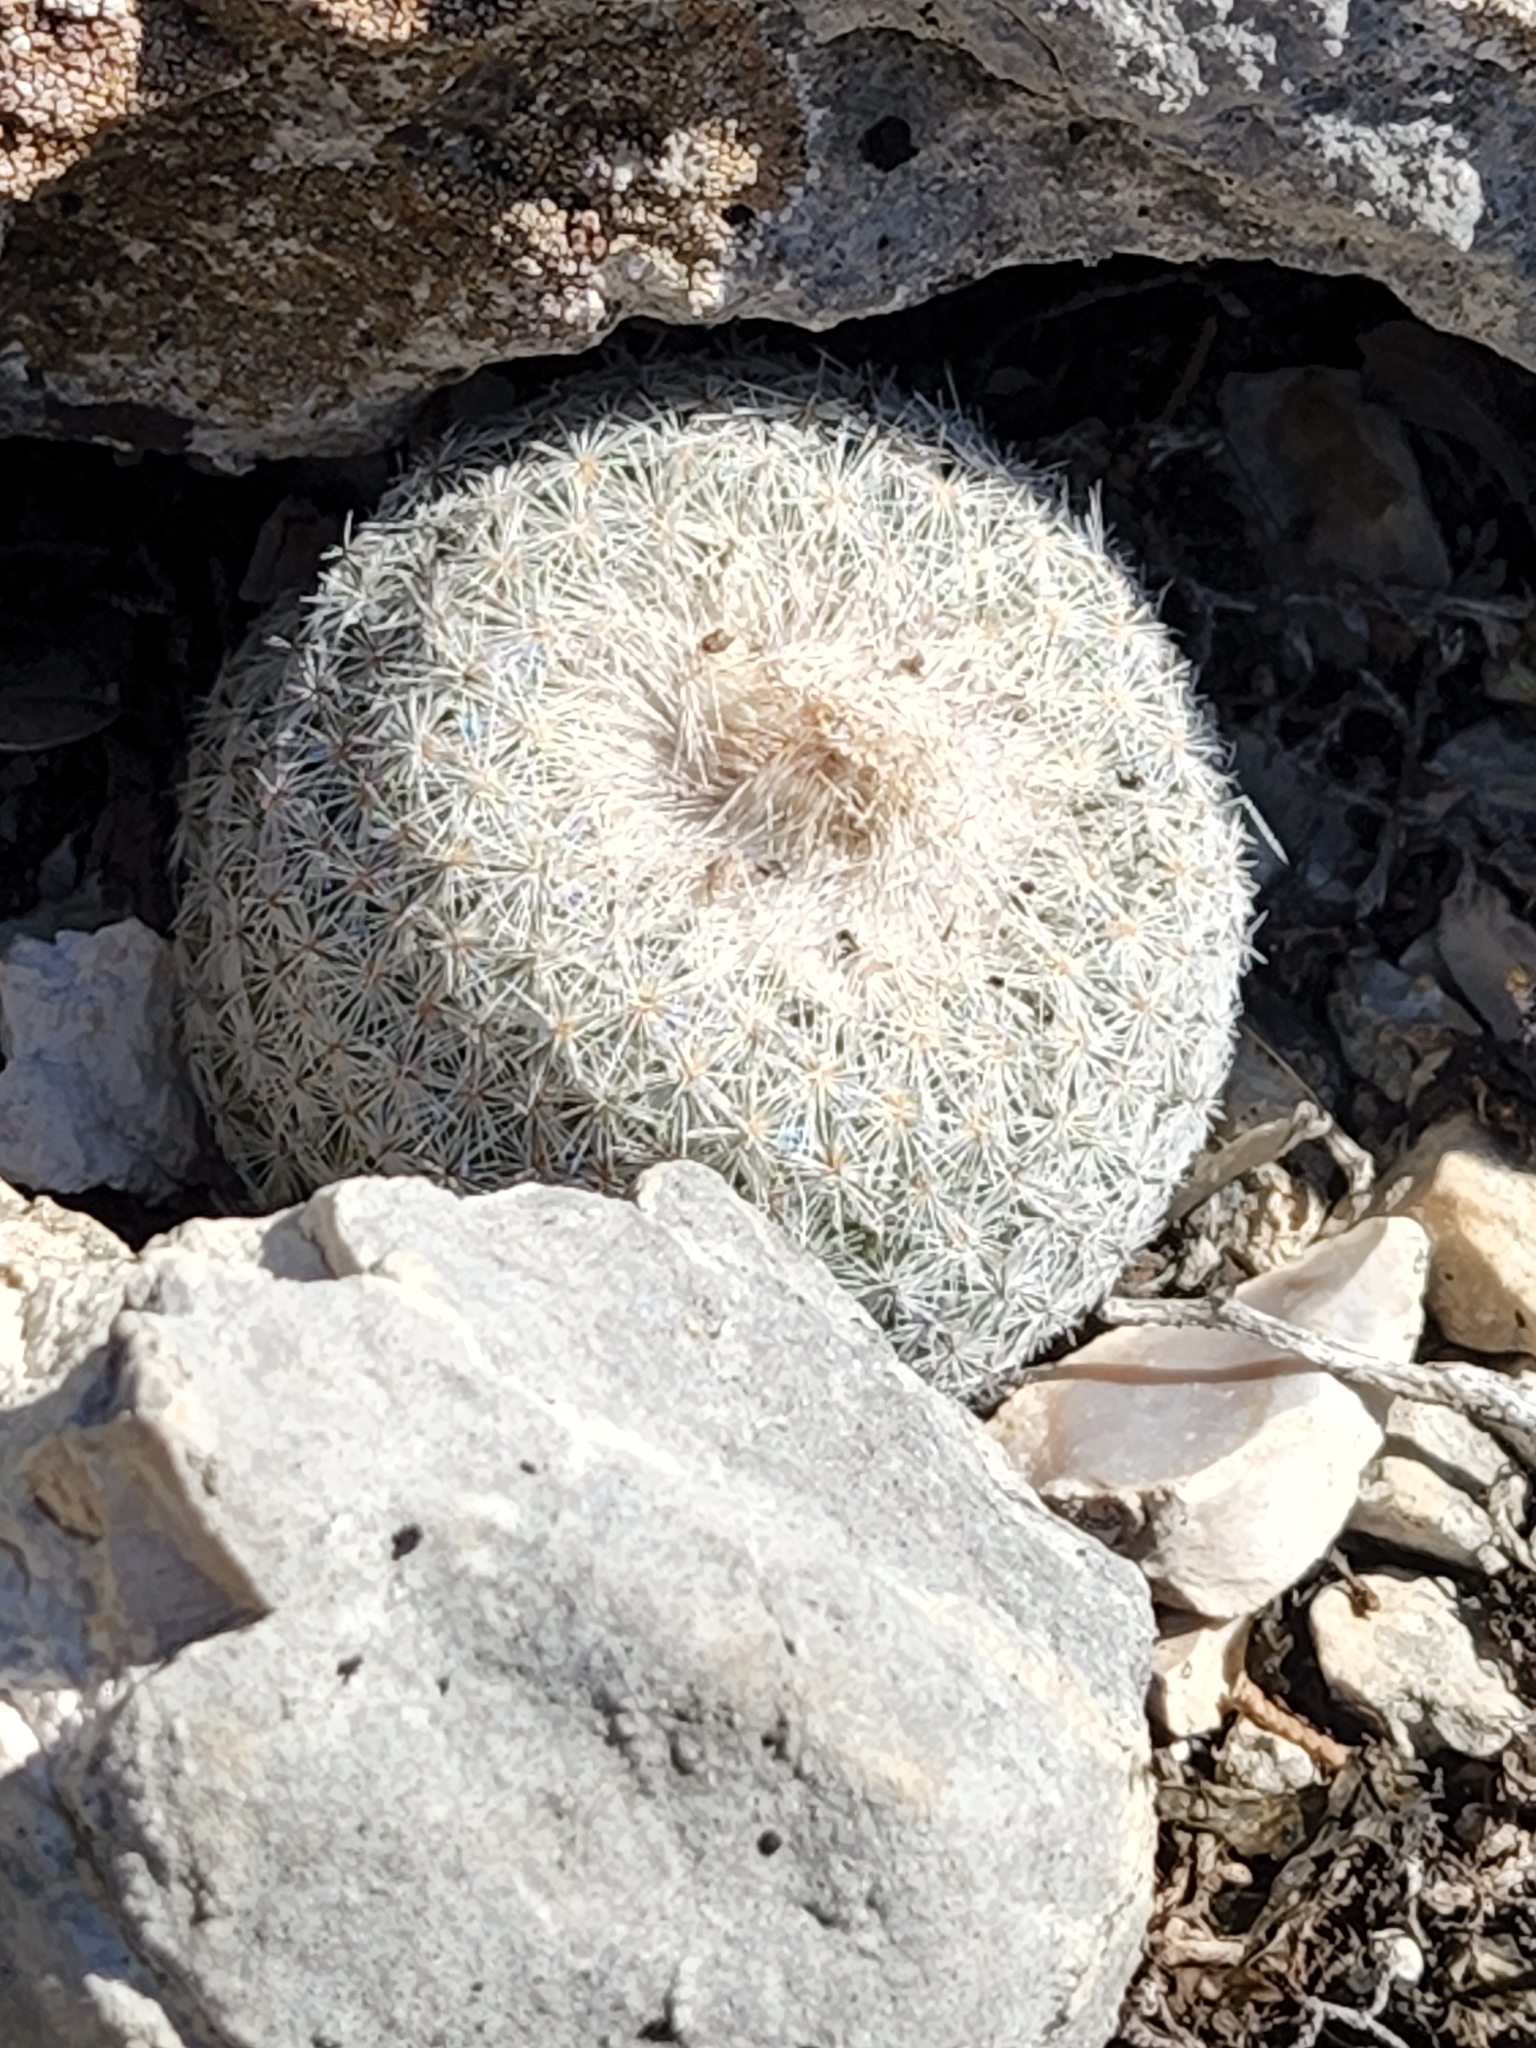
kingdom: Plantae
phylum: Tracheophyta
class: Magnoliopsida
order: Caryophyllales
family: Cactaceae
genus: Epithelantha
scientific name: Epithelantha micromeris
